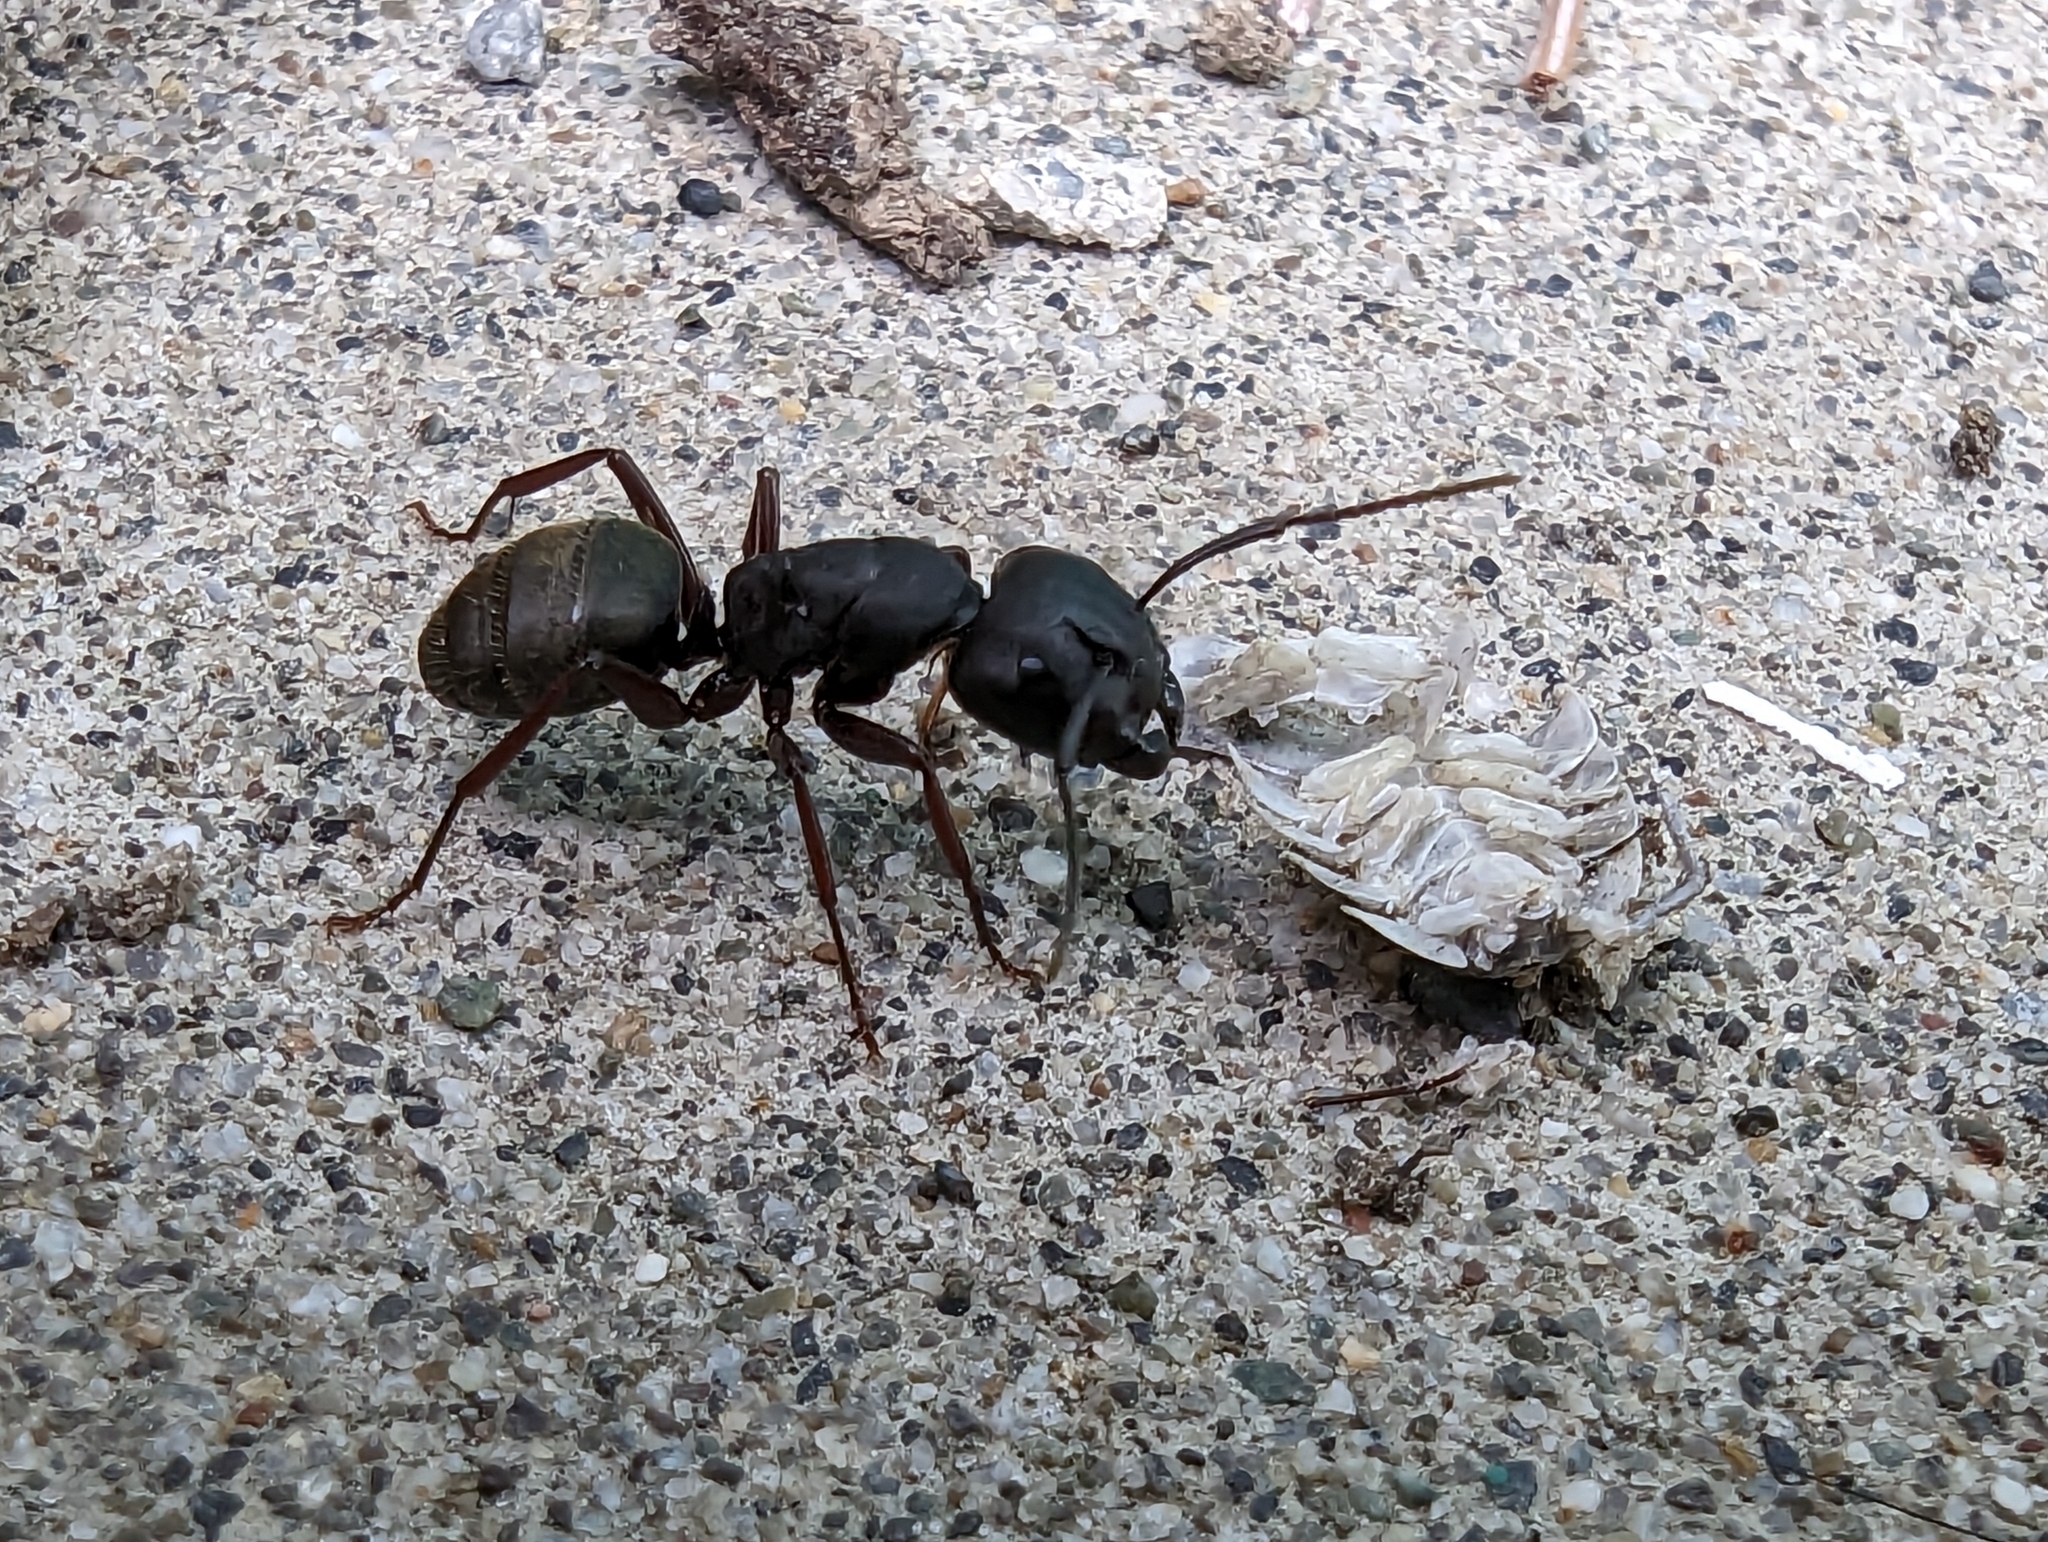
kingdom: Animalia
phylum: Arthropoda
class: Insecta
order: Hymenoptera
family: Formicidae
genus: Camponotus
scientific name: Camponotus modoc
